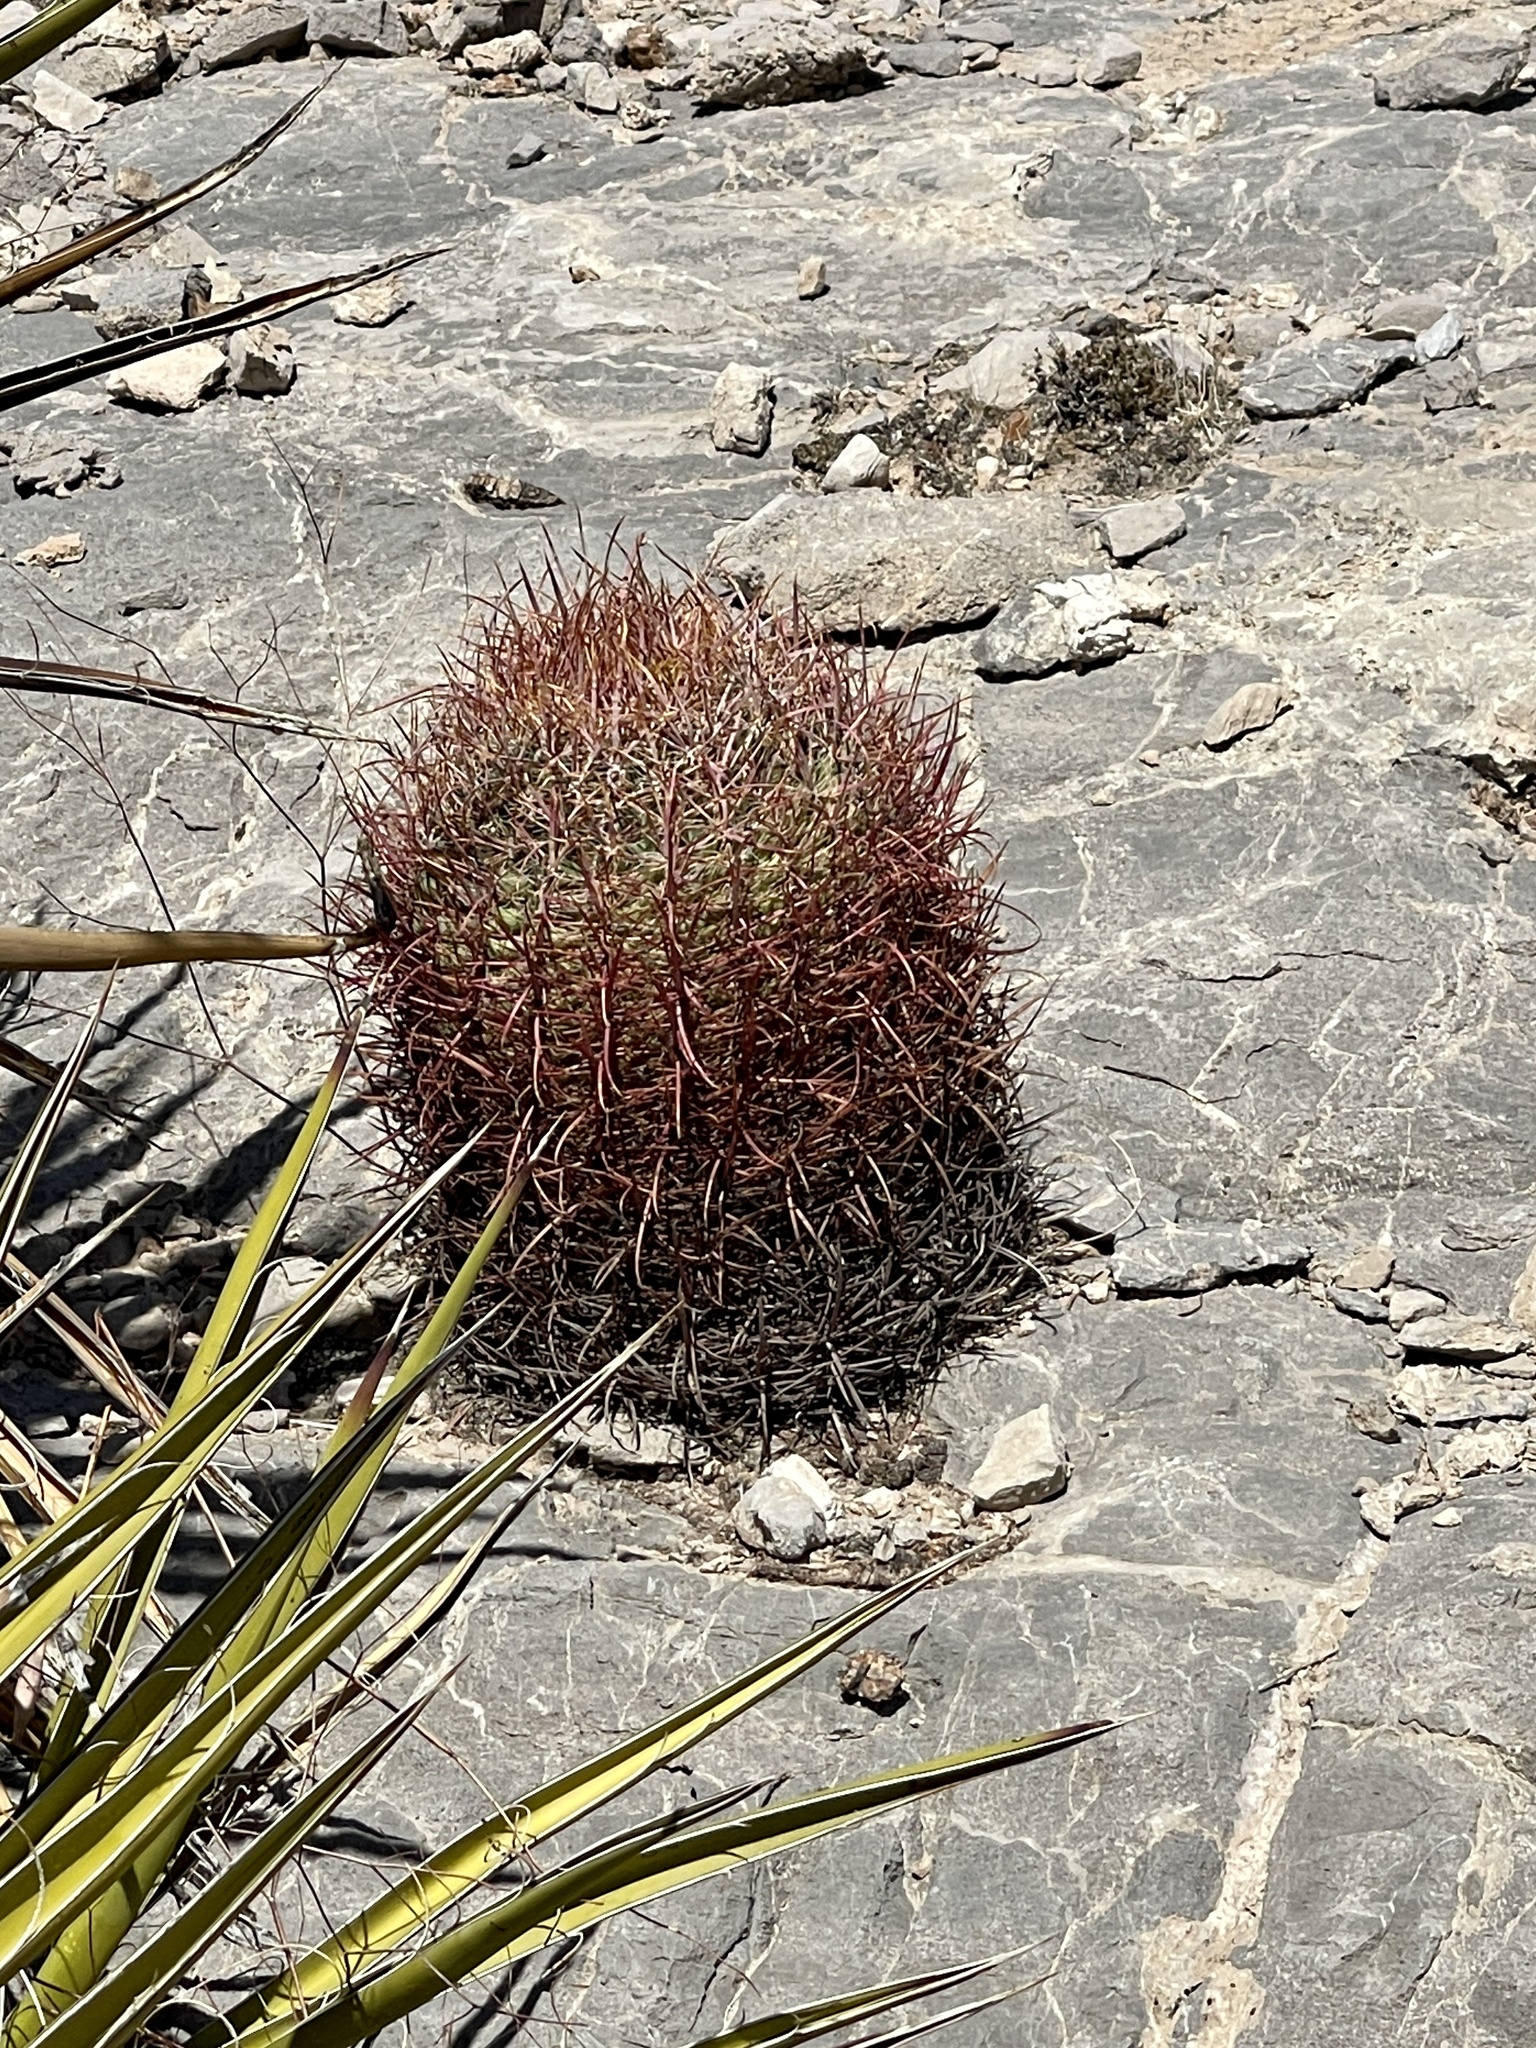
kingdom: Plantae
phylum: Tracheophyta
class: Magnoliopsida
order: Caryophyllales
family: Cactaceae
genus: Ferocactus
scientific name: Ferocactus cylindraceus
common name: California barrel cactus
